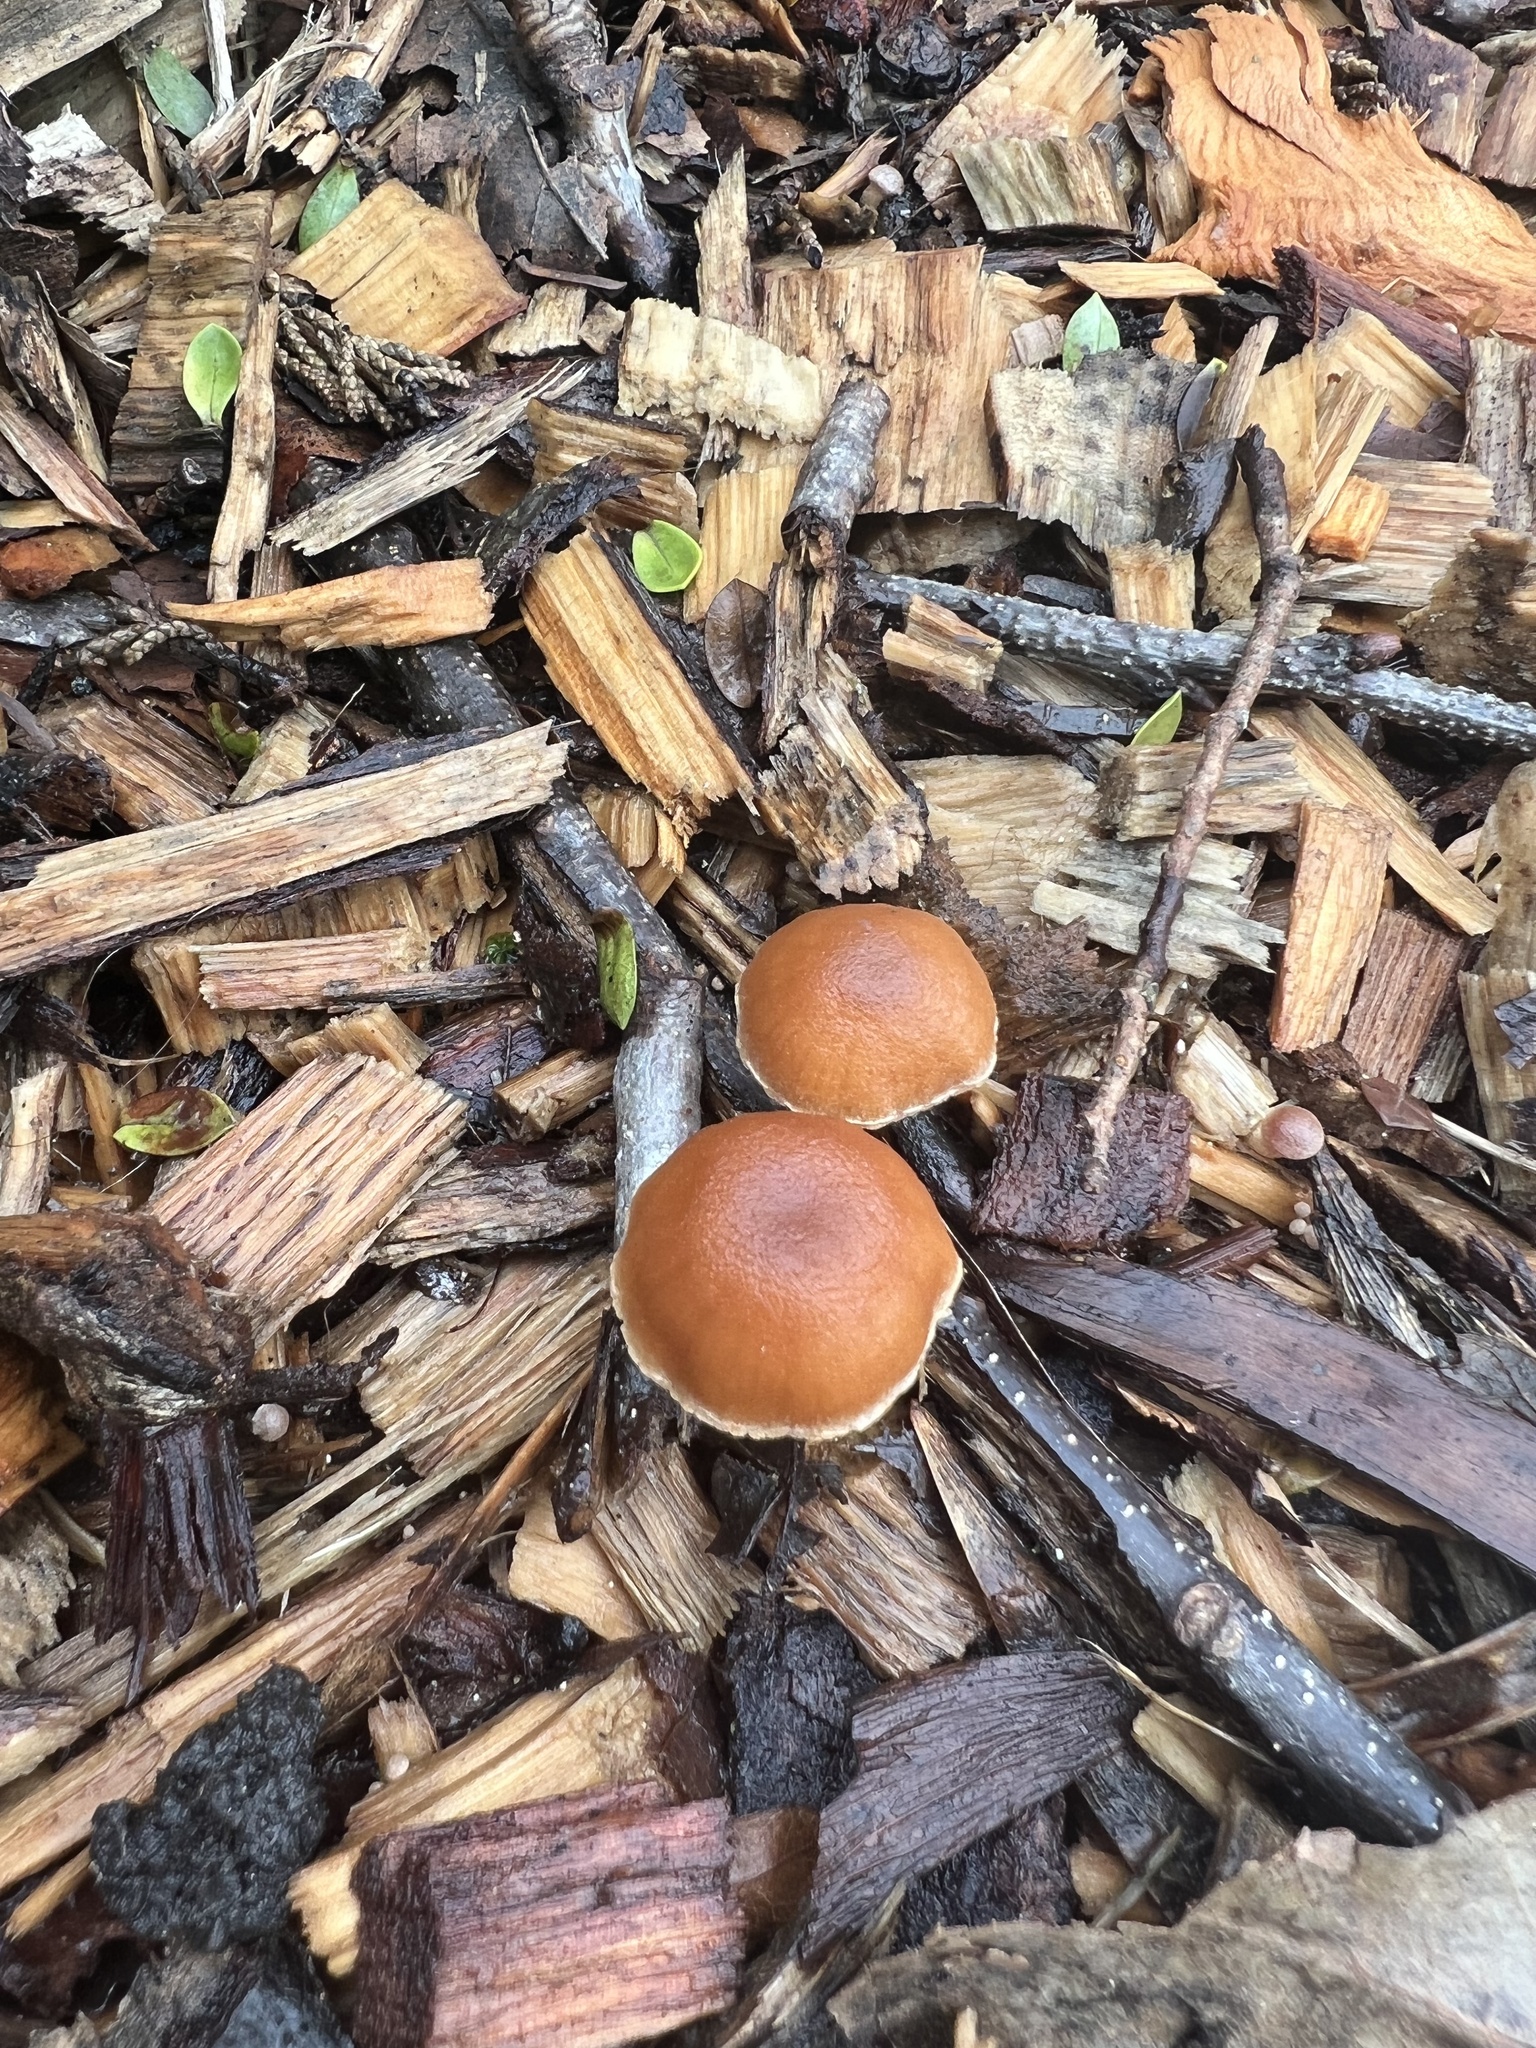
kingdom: Fungi
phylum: Basidiomycota
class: Agaricomycetes
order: Agaricales
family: Tubariaceae
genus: Tubaria
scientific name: Tubaria furfuracea
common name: Scurfy twiglet
